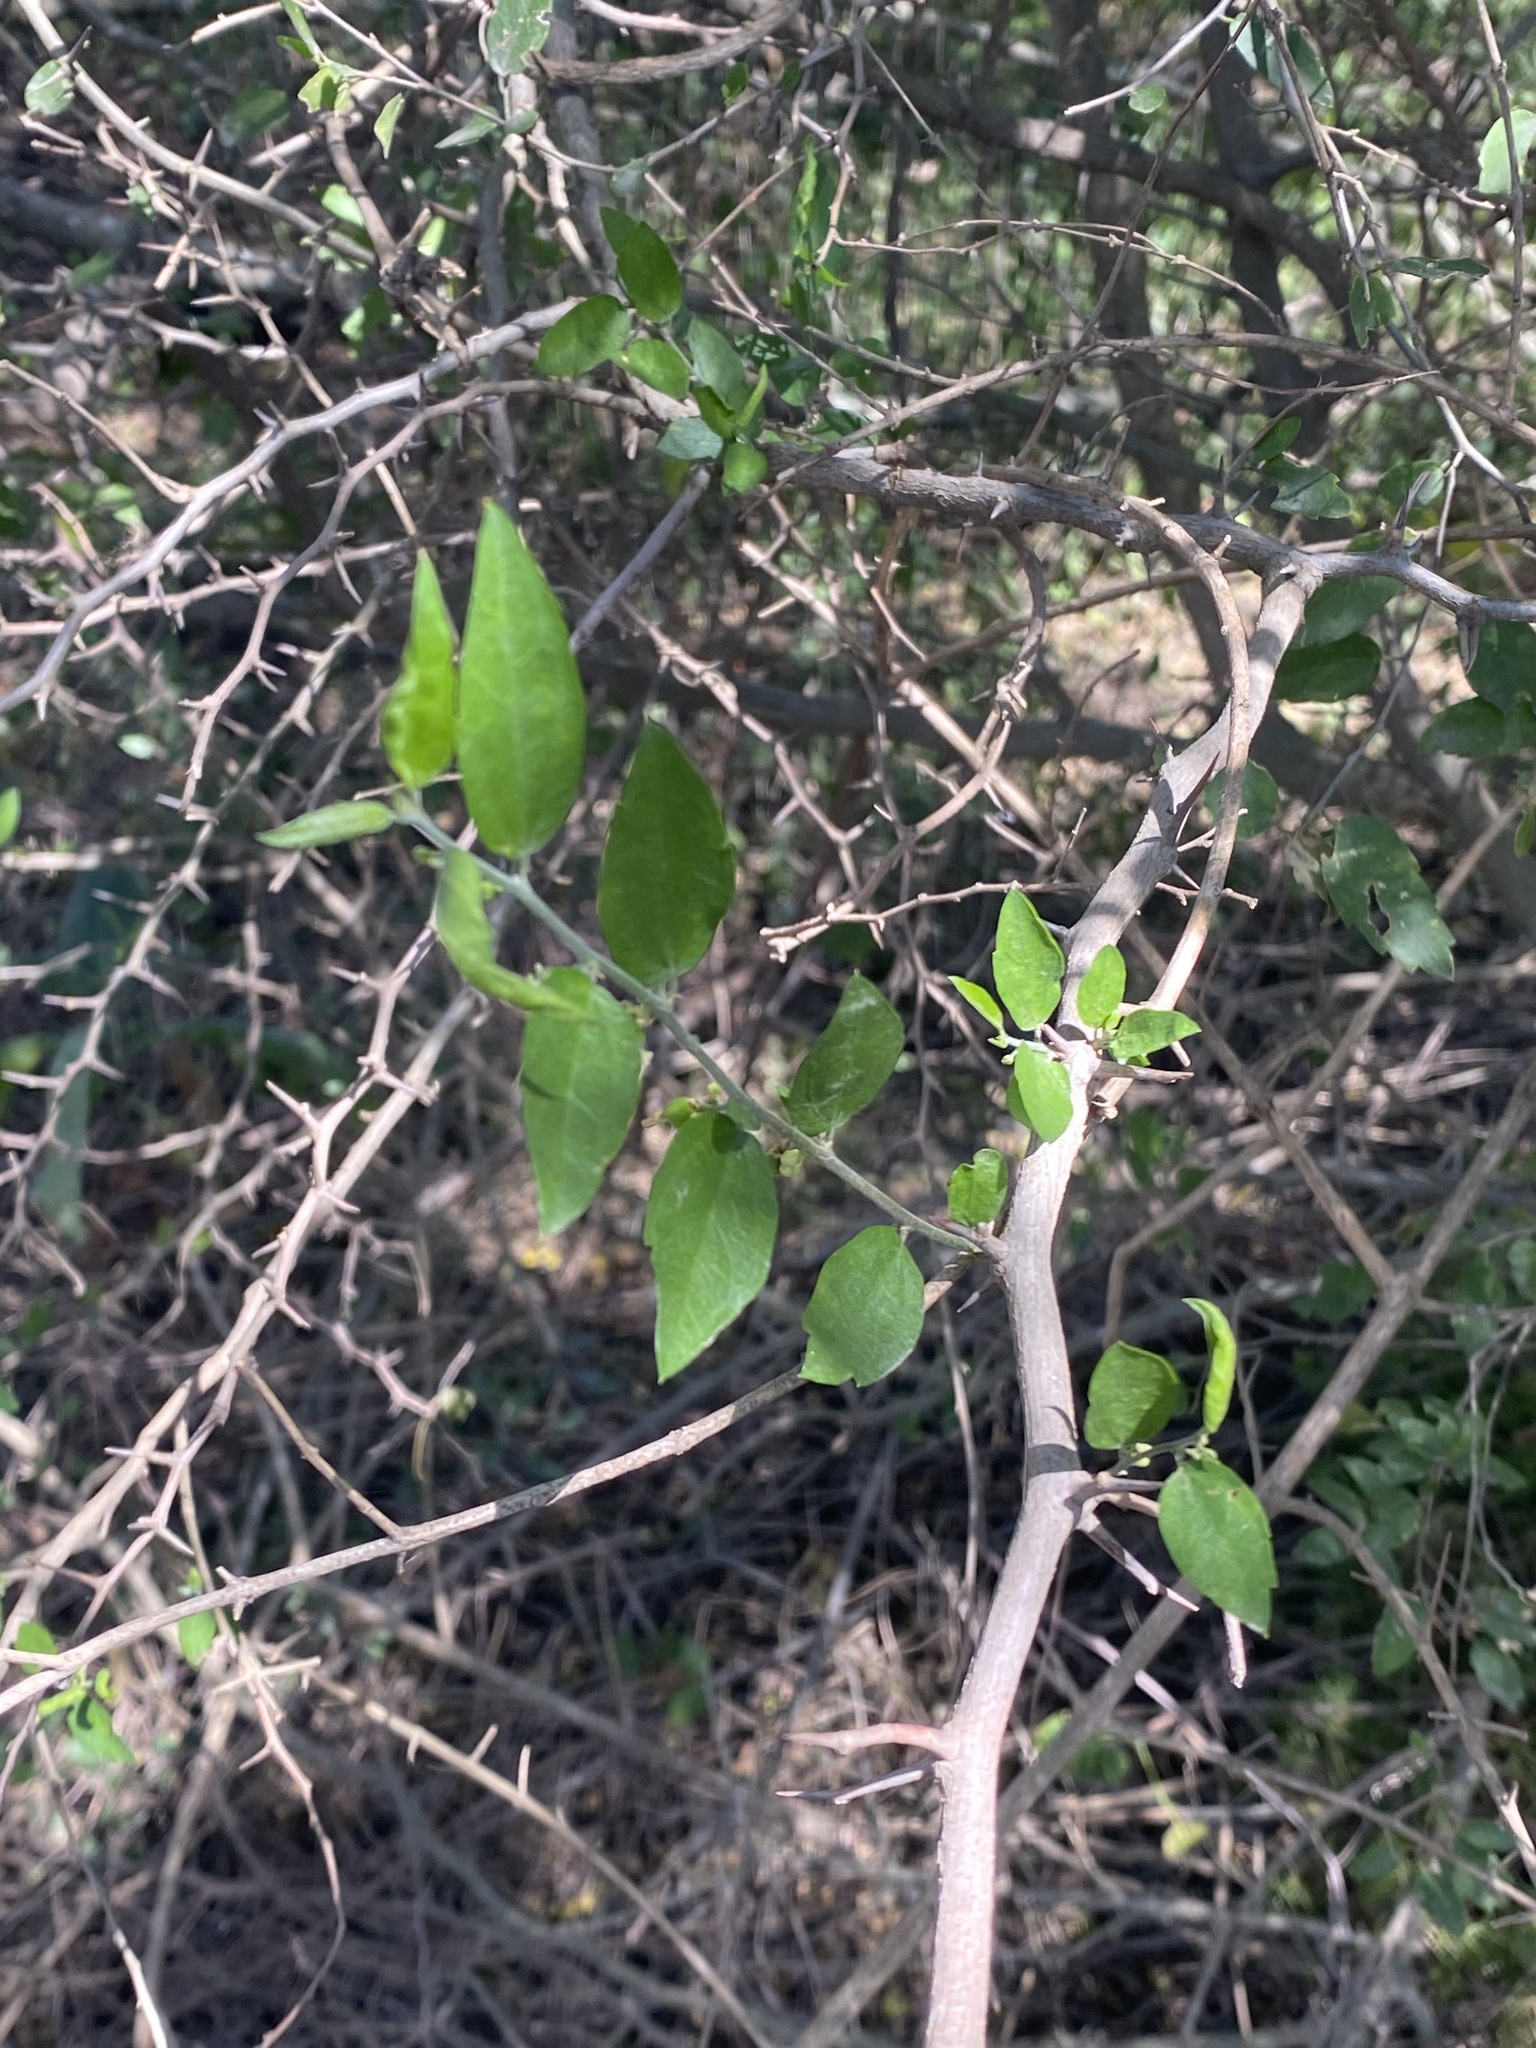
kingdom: Plantae
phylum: Tracheophyta
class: Magnoliopsida
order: Rosales
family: Cannabaceae
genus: Celtis
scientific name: Celtis tala
